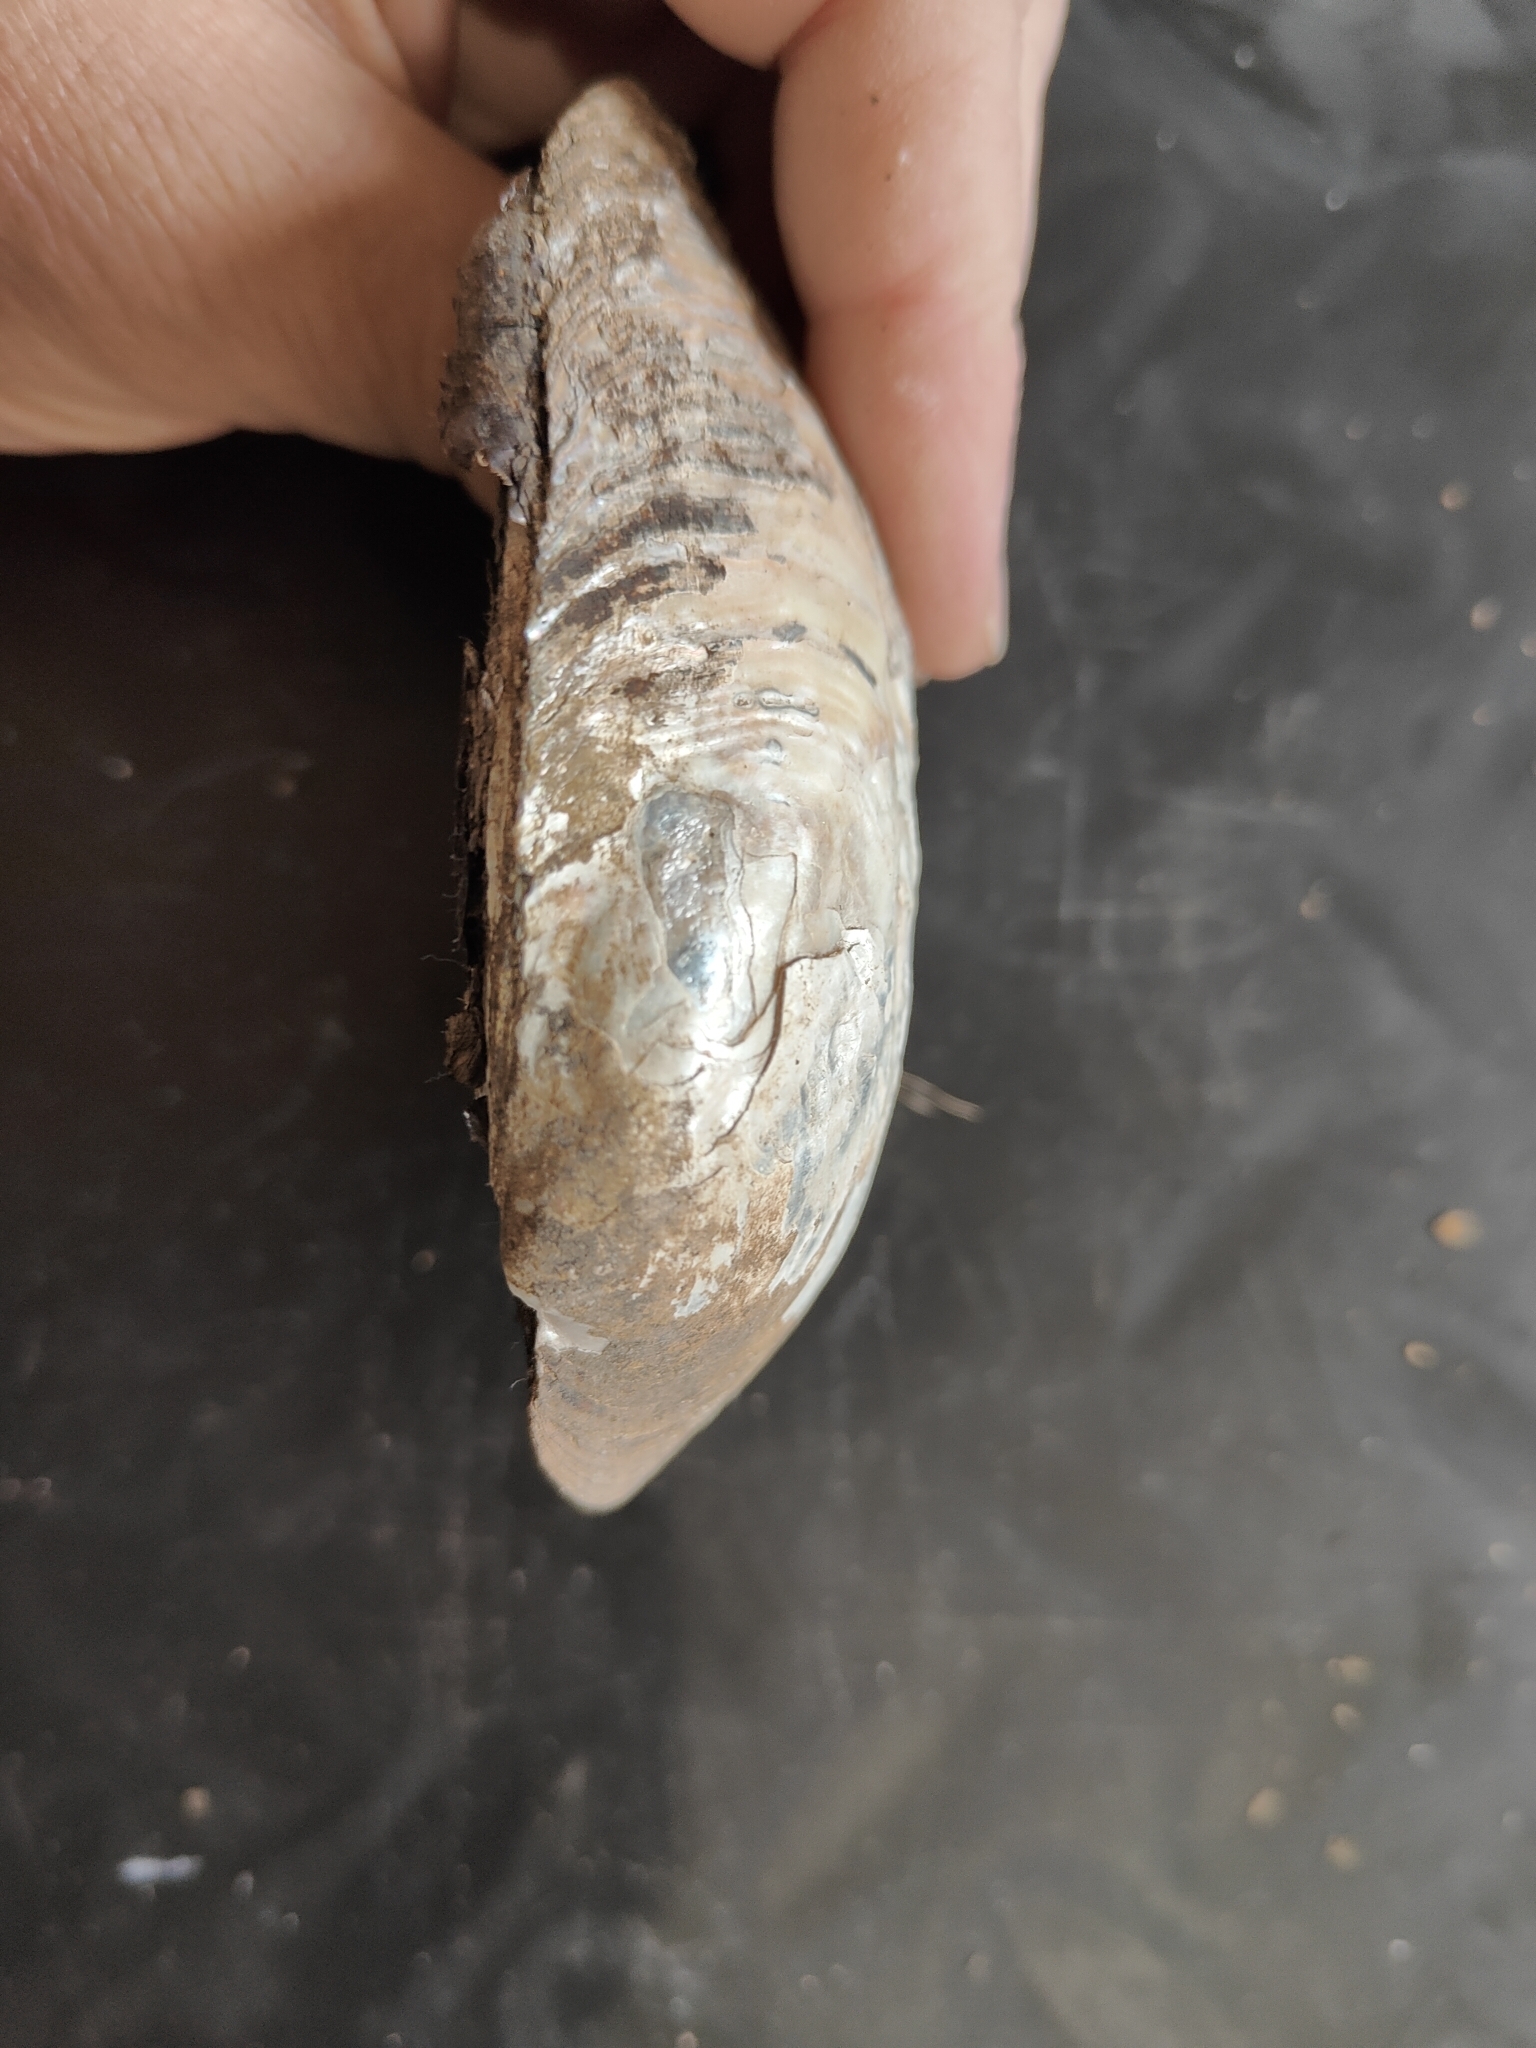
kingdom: Animalia
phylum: Mollusca
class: Bivalvia
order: Unionida
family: Unionidae
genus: Amblema
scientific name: Amblema plicata
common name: Threeridge
